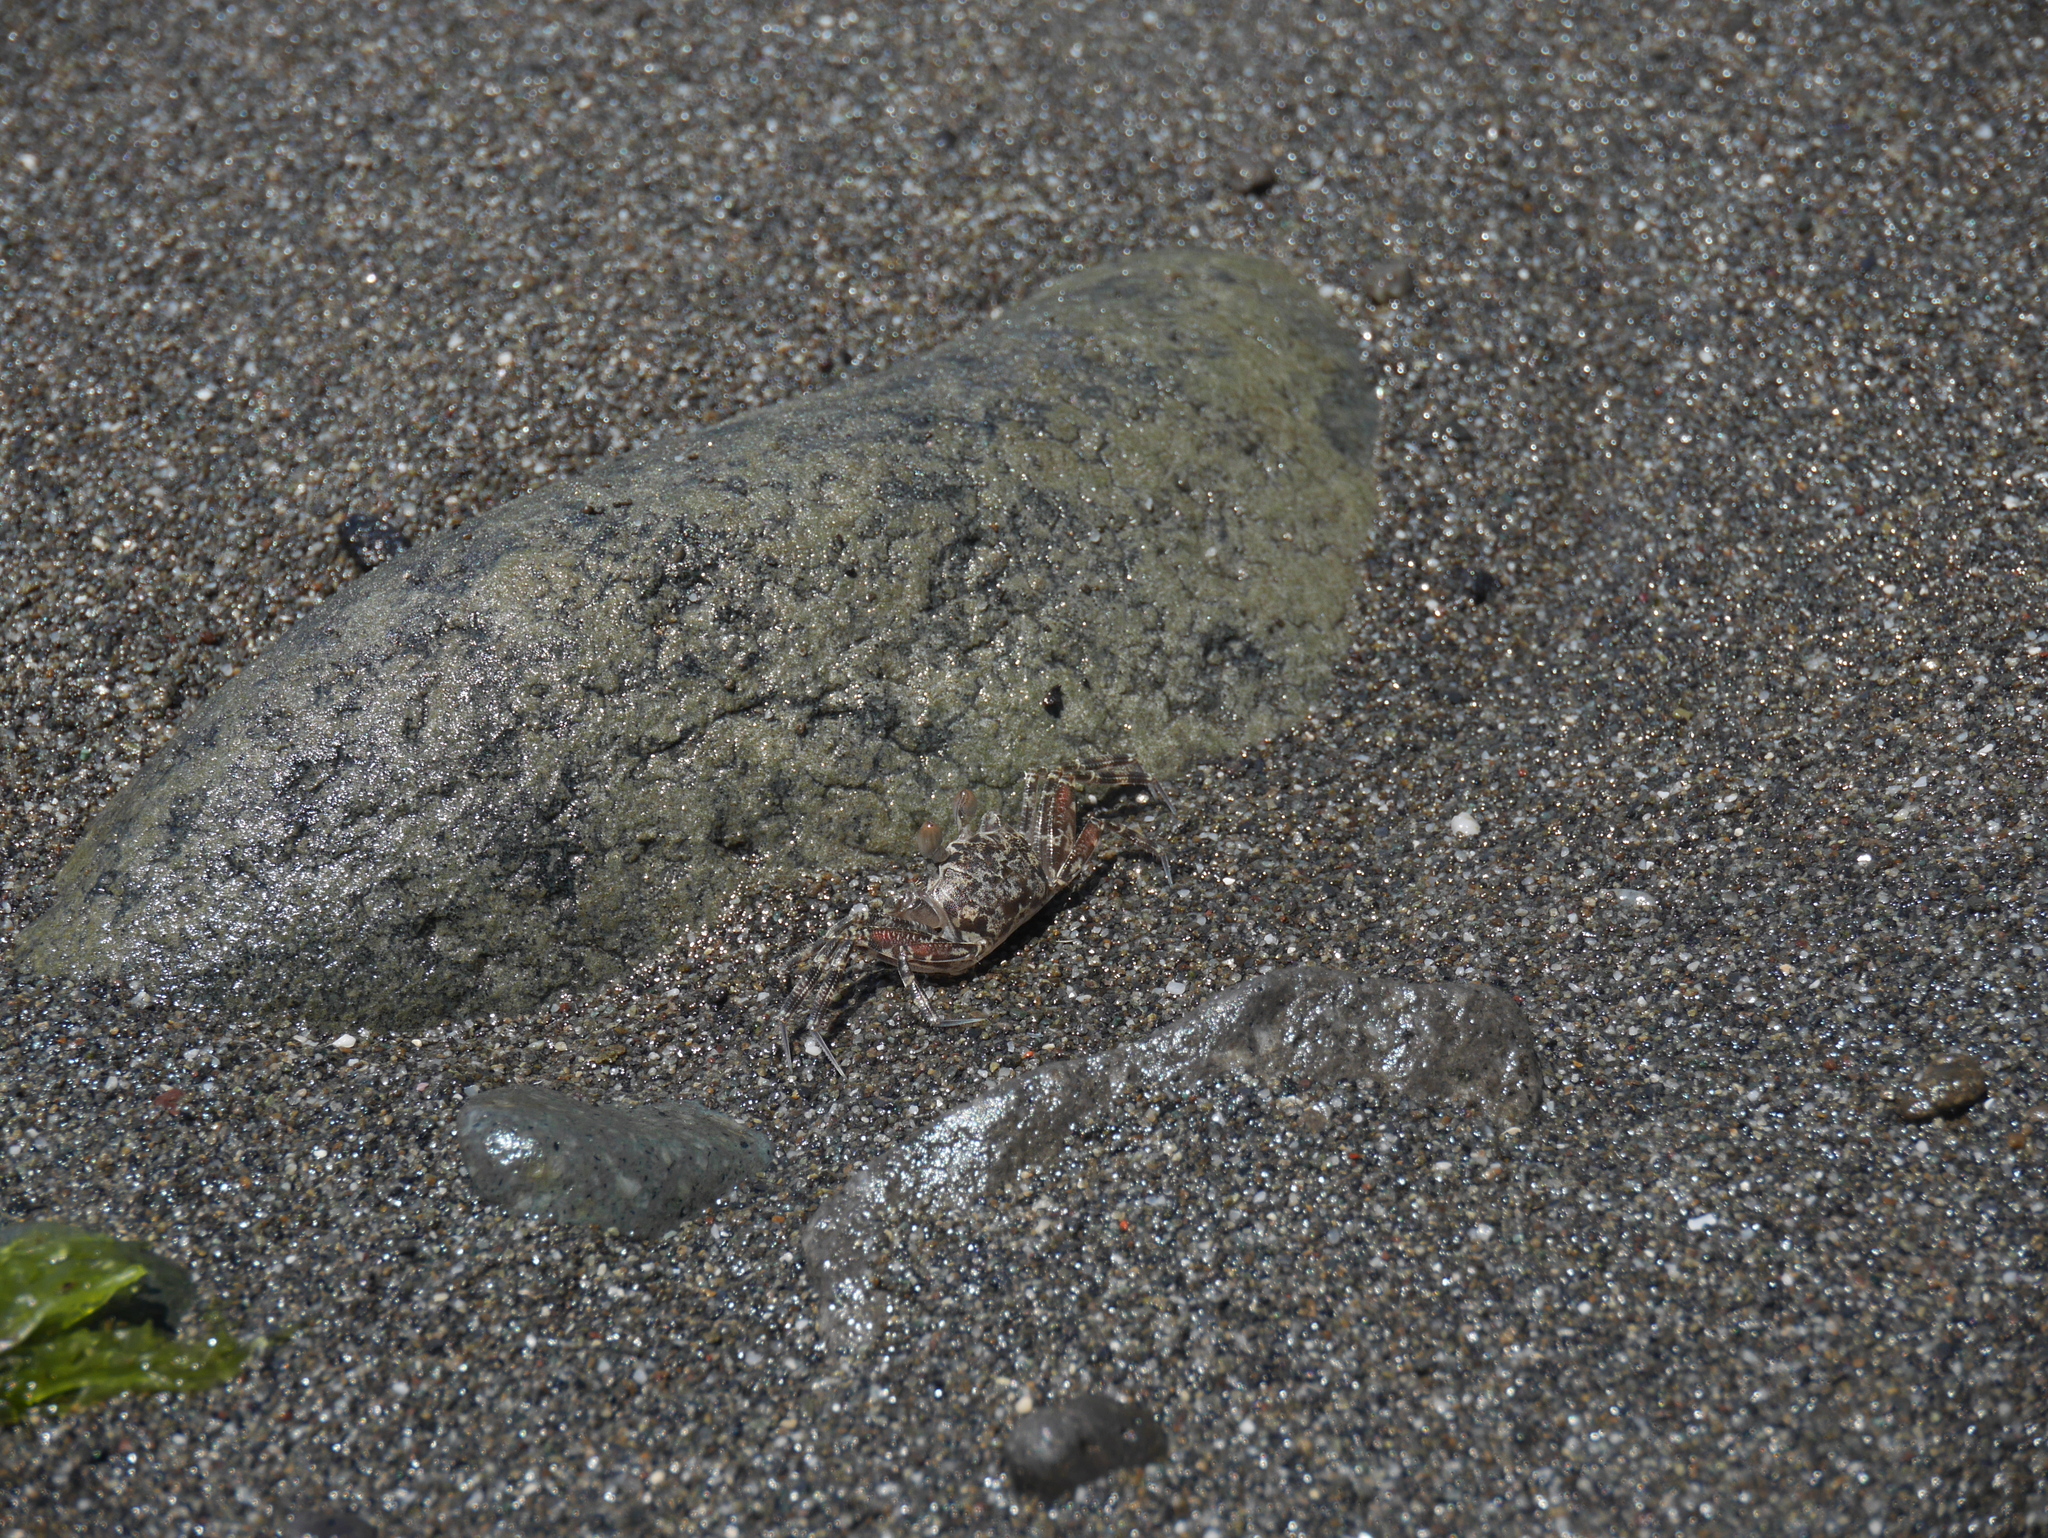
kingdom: Animalia
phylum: Arthropoda
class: Malacostraca
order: Decapoda
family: Ocypodidae
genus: Ocypode
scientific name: Ocypode ceratophthalmus
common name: Indo-pacific ghost crab
